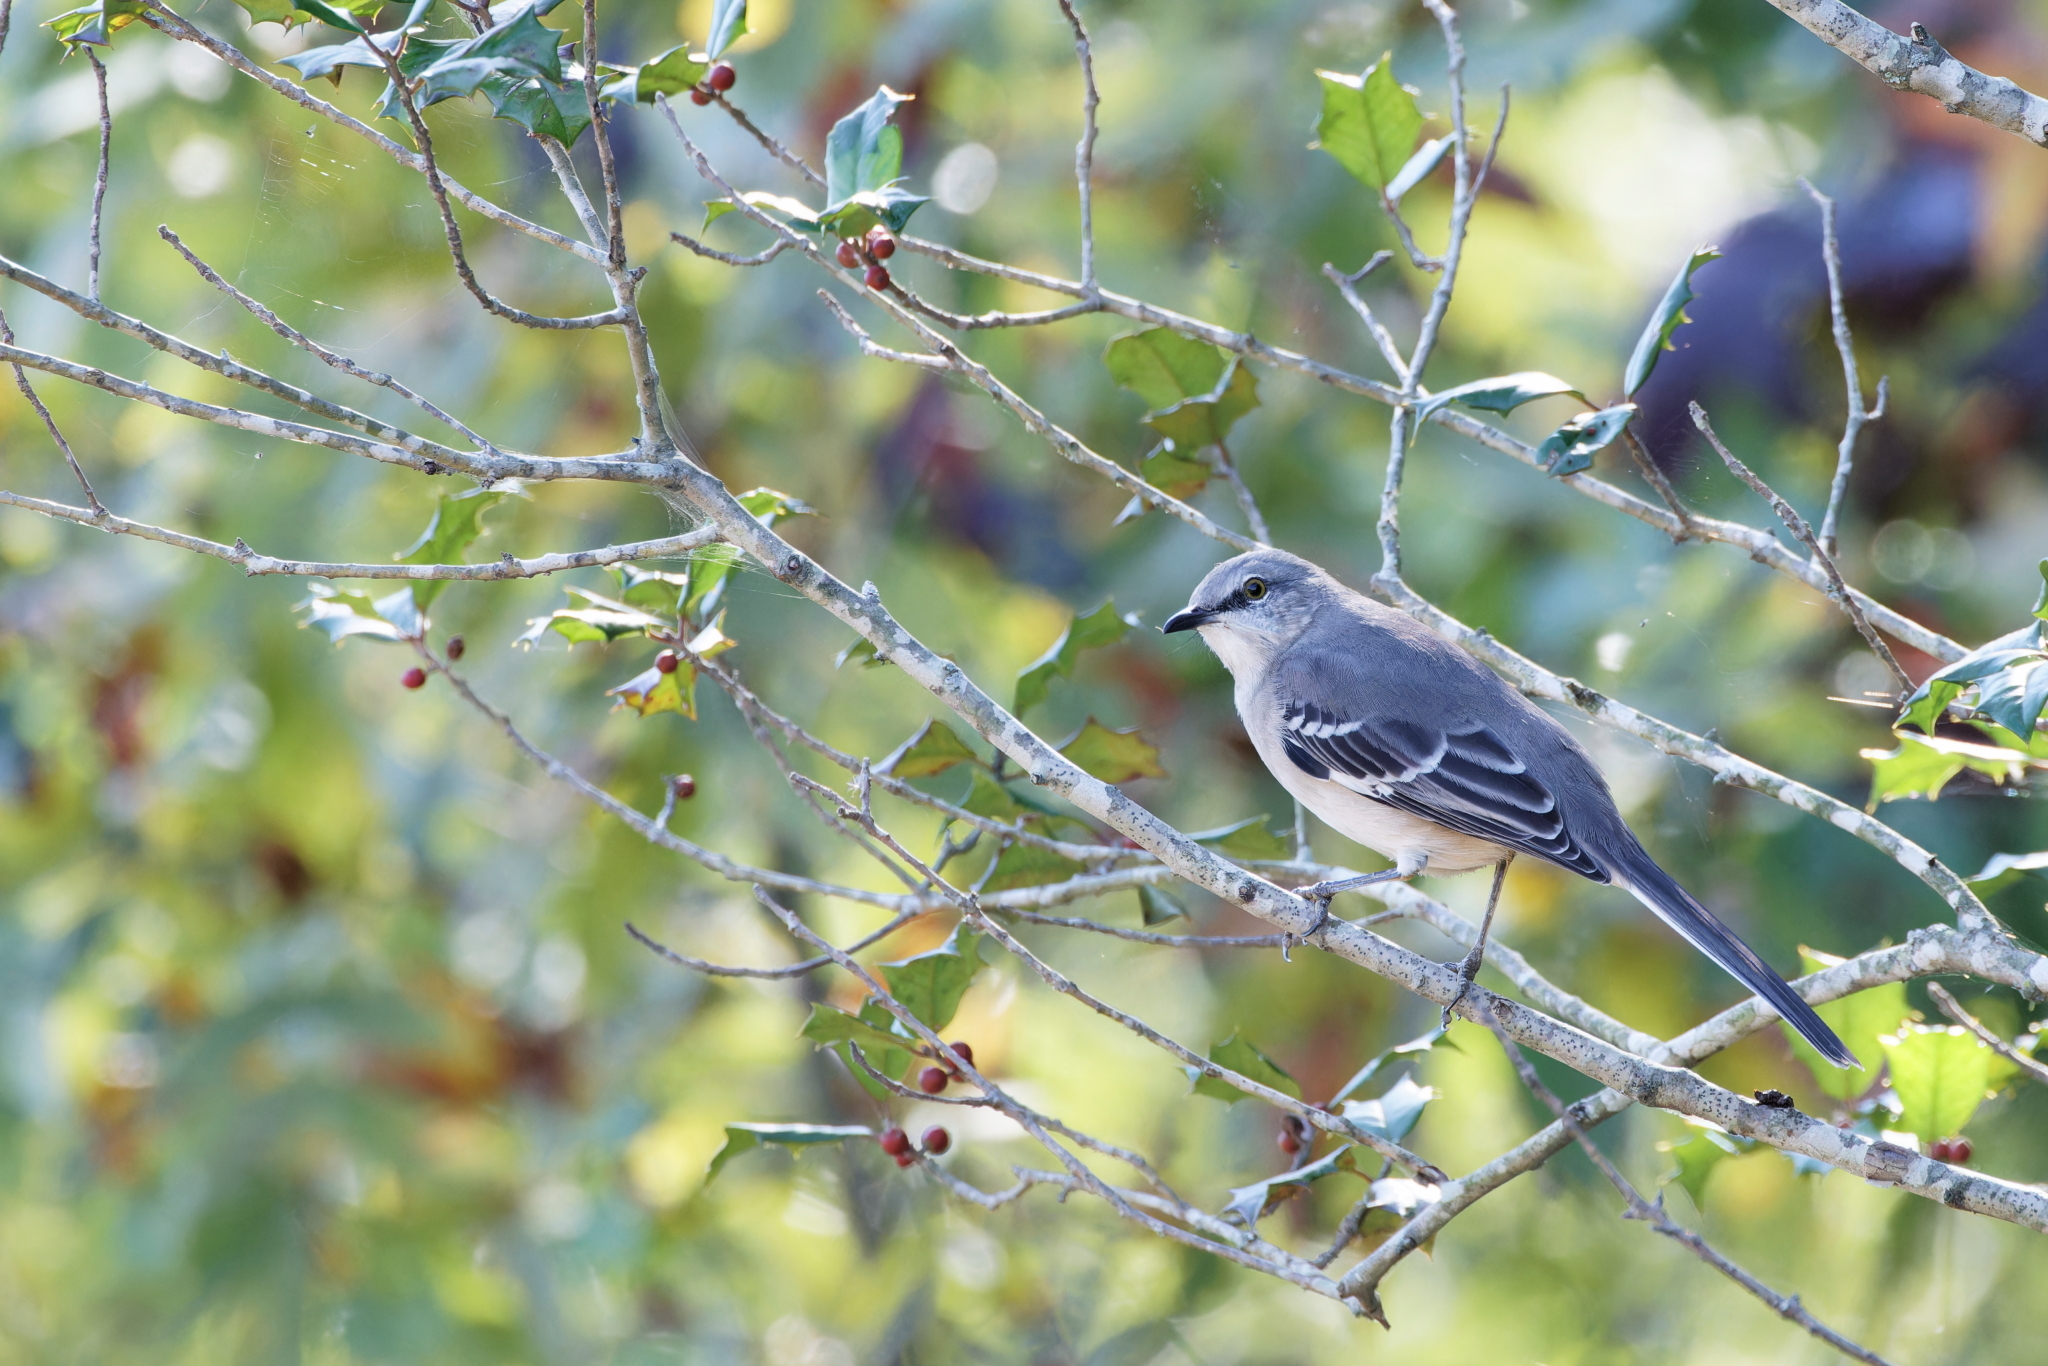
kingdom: Animalia
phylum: Chordata
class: Aves
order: Passeriformes
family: Mimidae
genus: Mimus
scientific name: Mimus polyglottos
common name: Northern mockingbird
